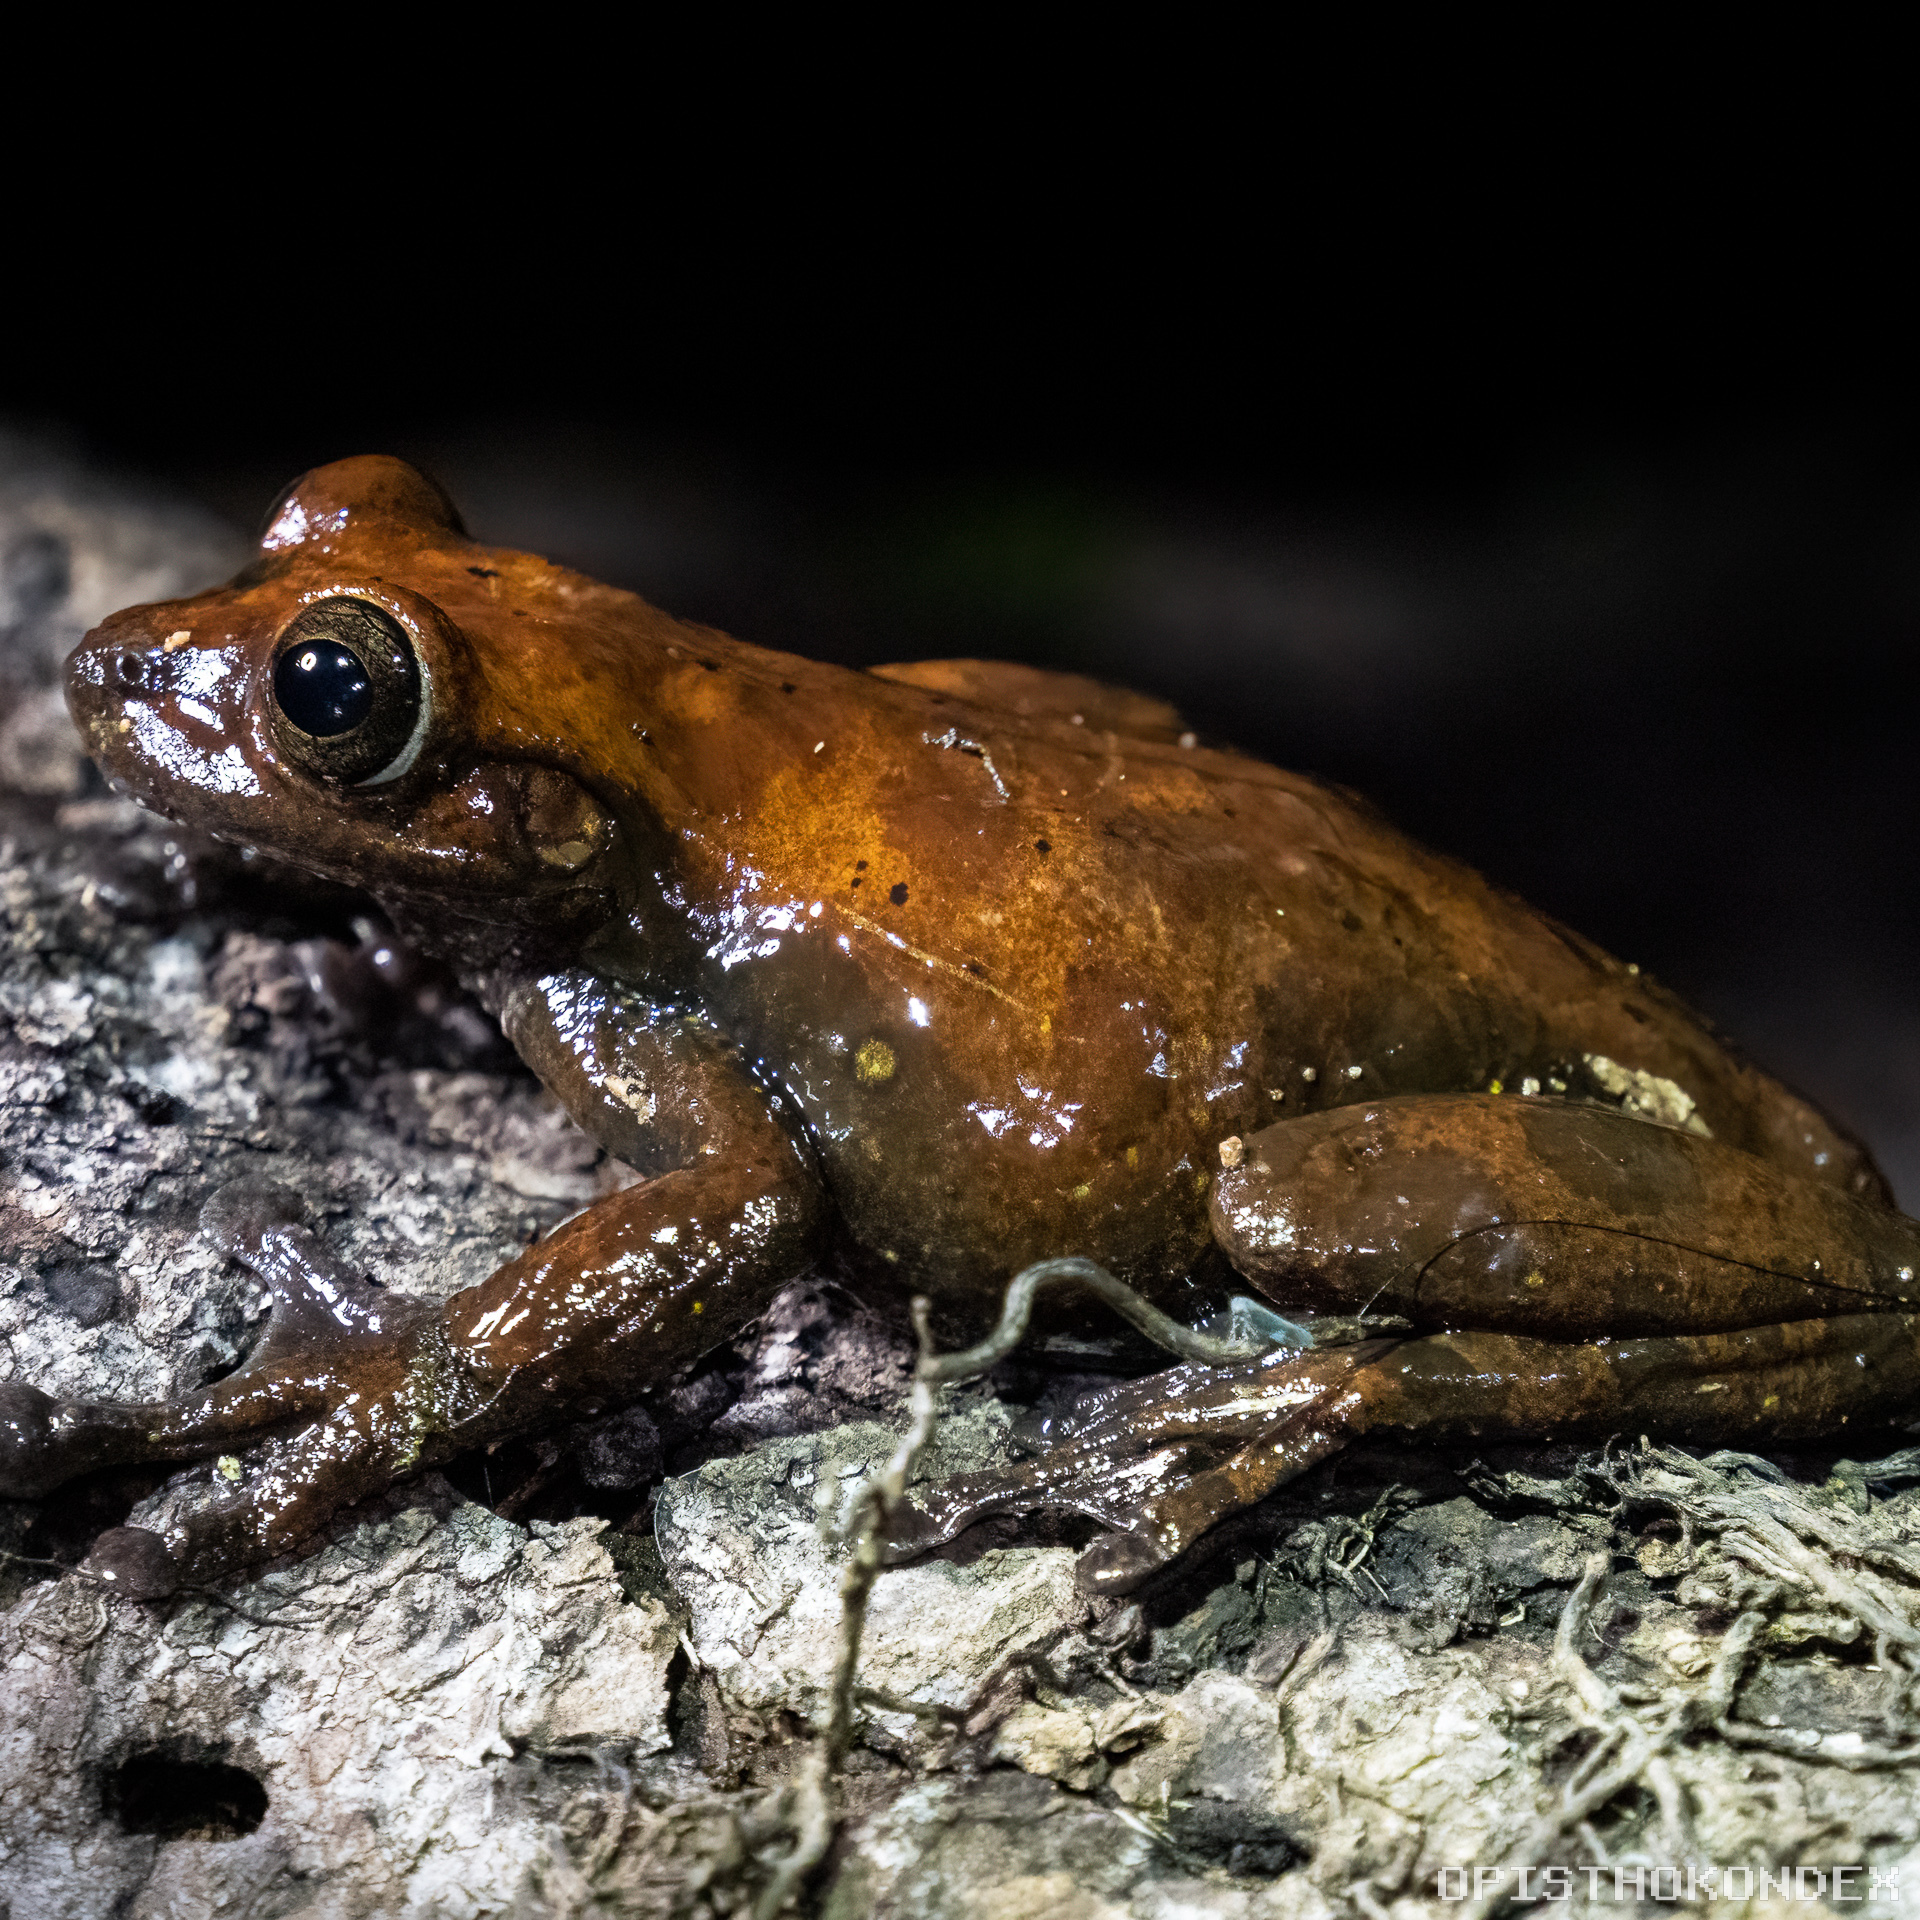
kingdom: Animalia
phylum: Chordata
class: Amphibia
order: Anura
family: Hylidae
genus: Charadrahyla
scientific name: Charadrahyla taeniopus
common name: Porthole treefrog
